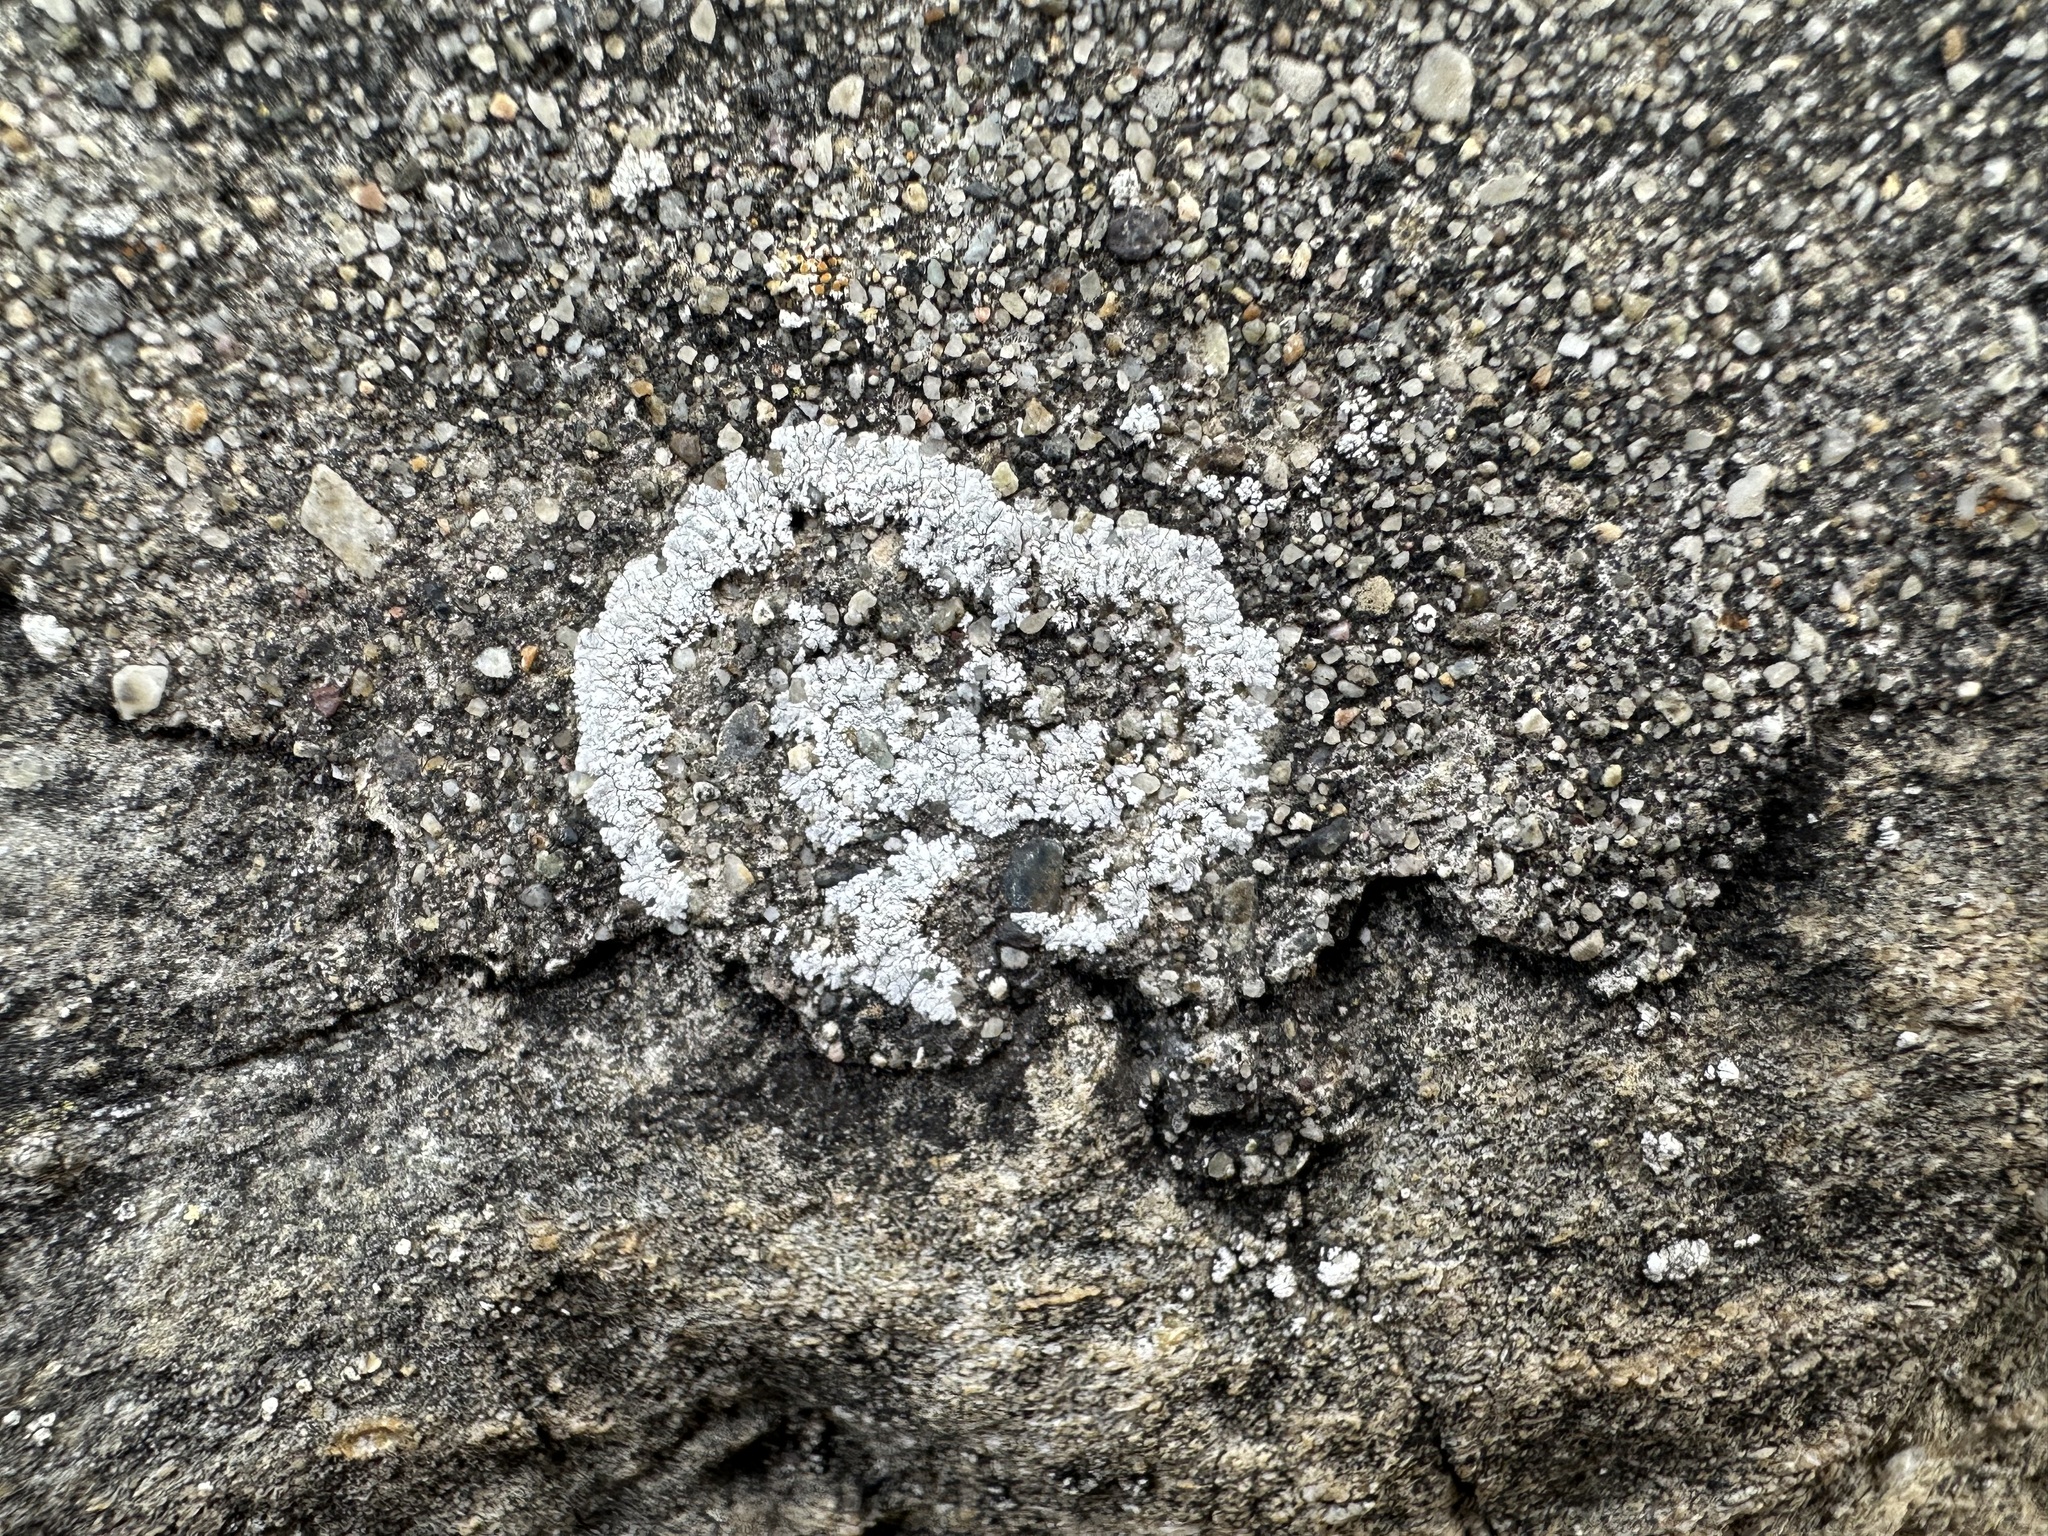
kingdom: Fungi
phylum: Ascomycota
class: Lecanoromycetes
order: Teloschistales
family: Teloschistaceae
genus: Kuettlingeria
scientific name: Kuettlingeria teicholyta
